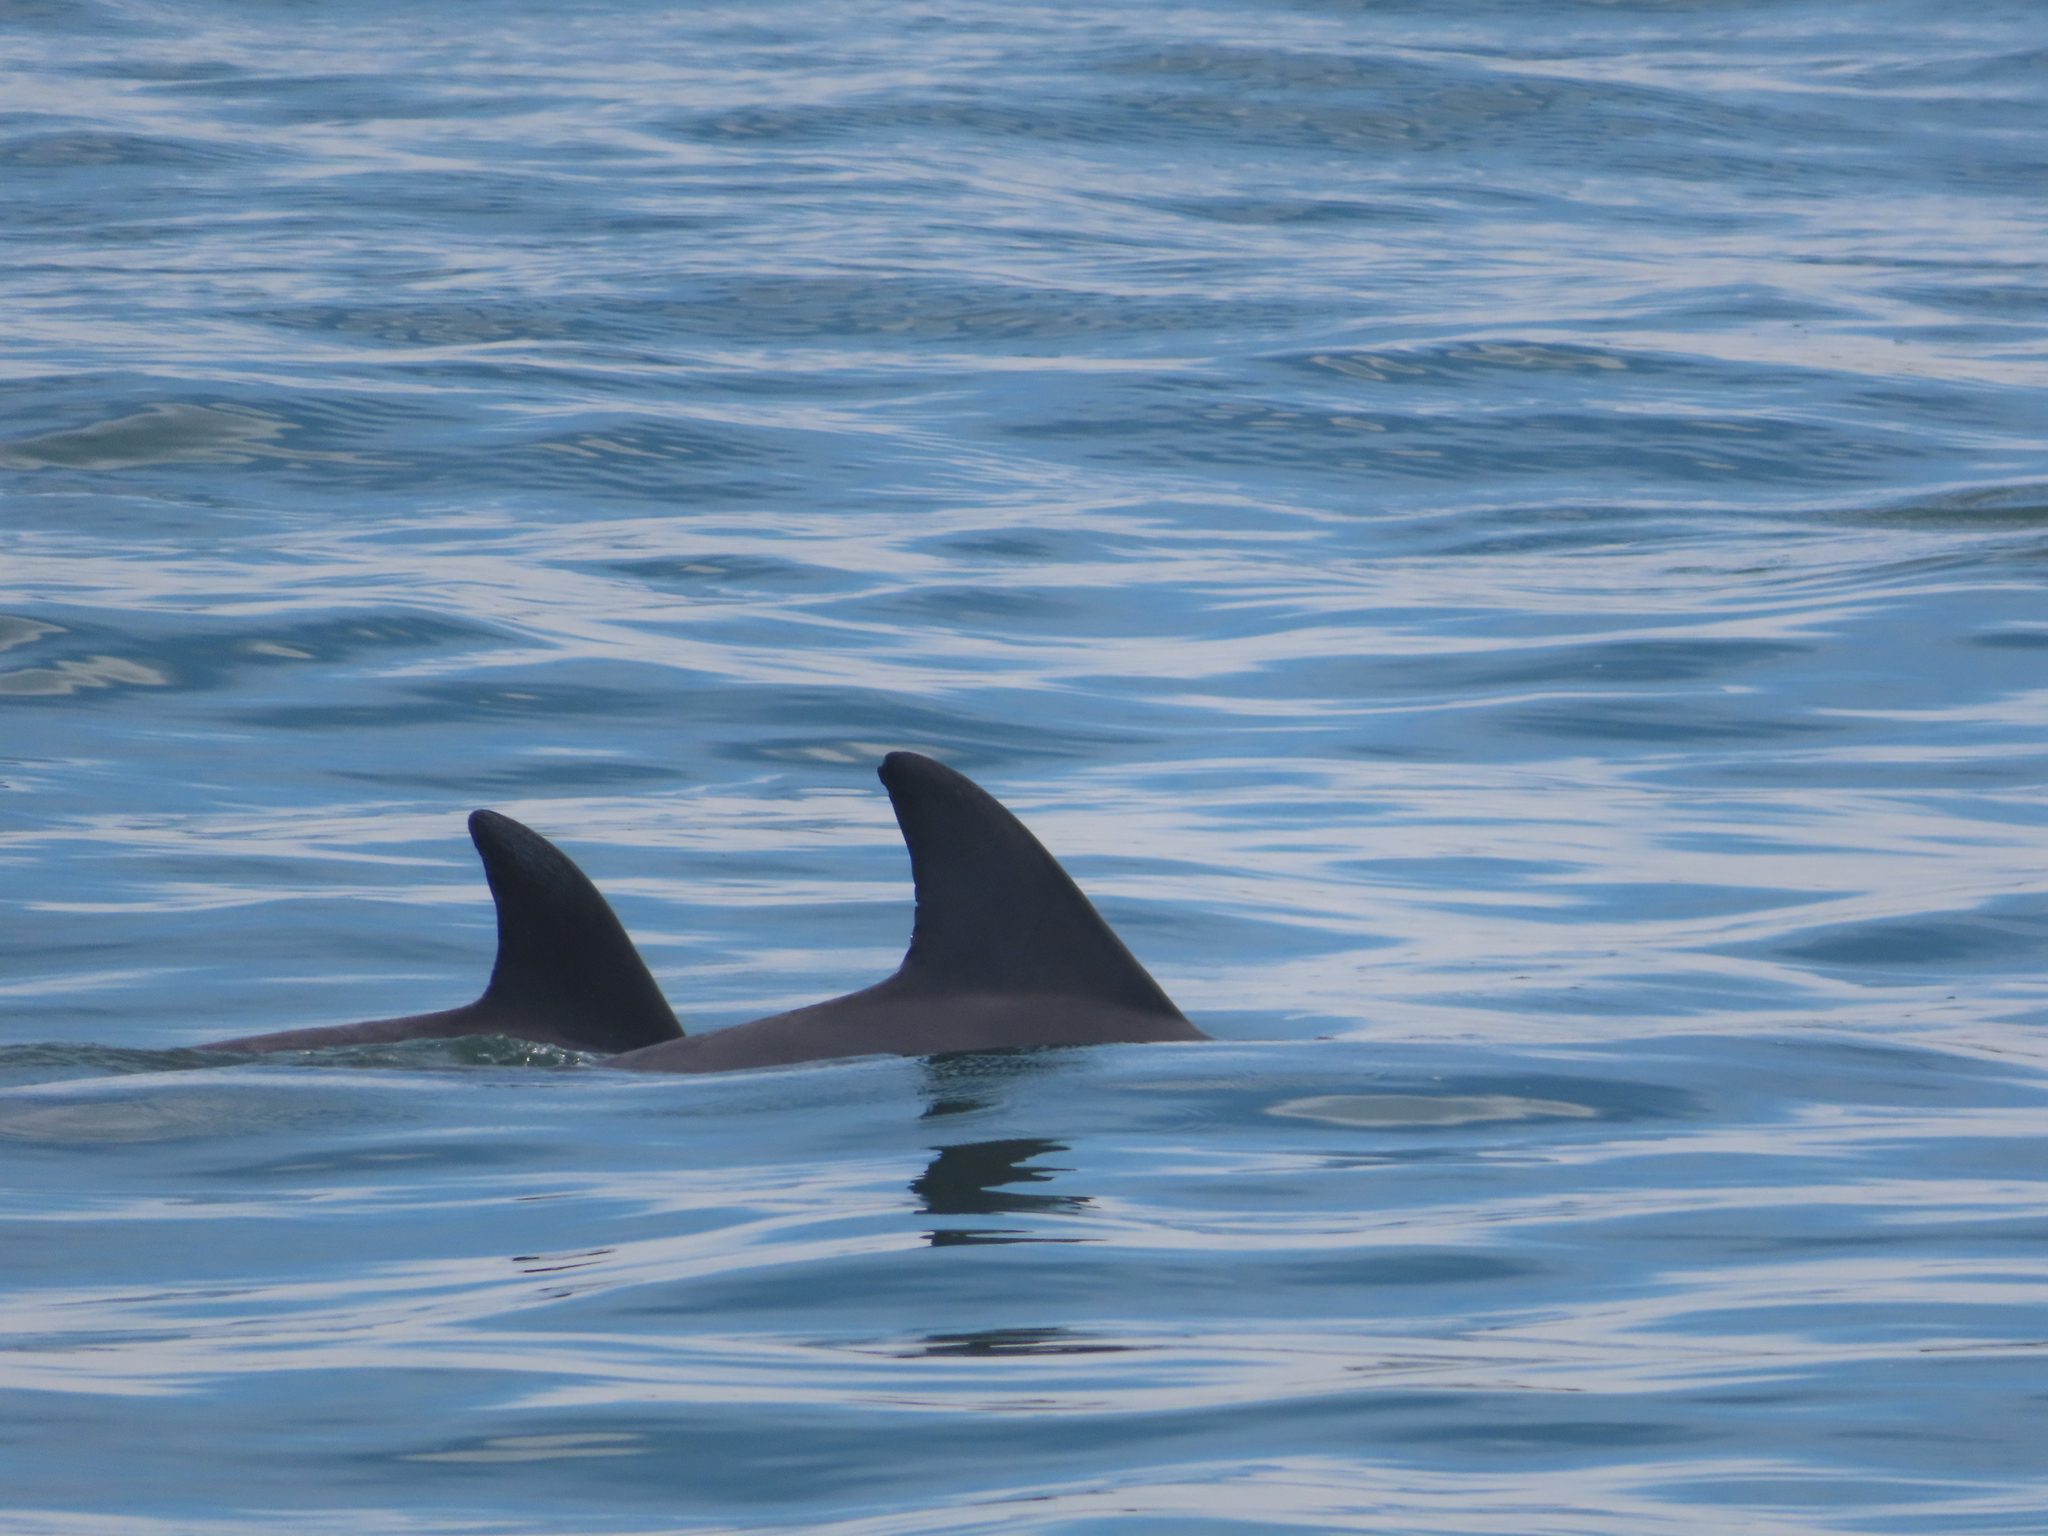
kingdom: Animalia
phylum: Chordata
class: Mammalia
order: Cetacea
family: Delphinidae
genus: Tursiops
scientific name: Tursiops truncatus
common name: Bottlenose dolphin
